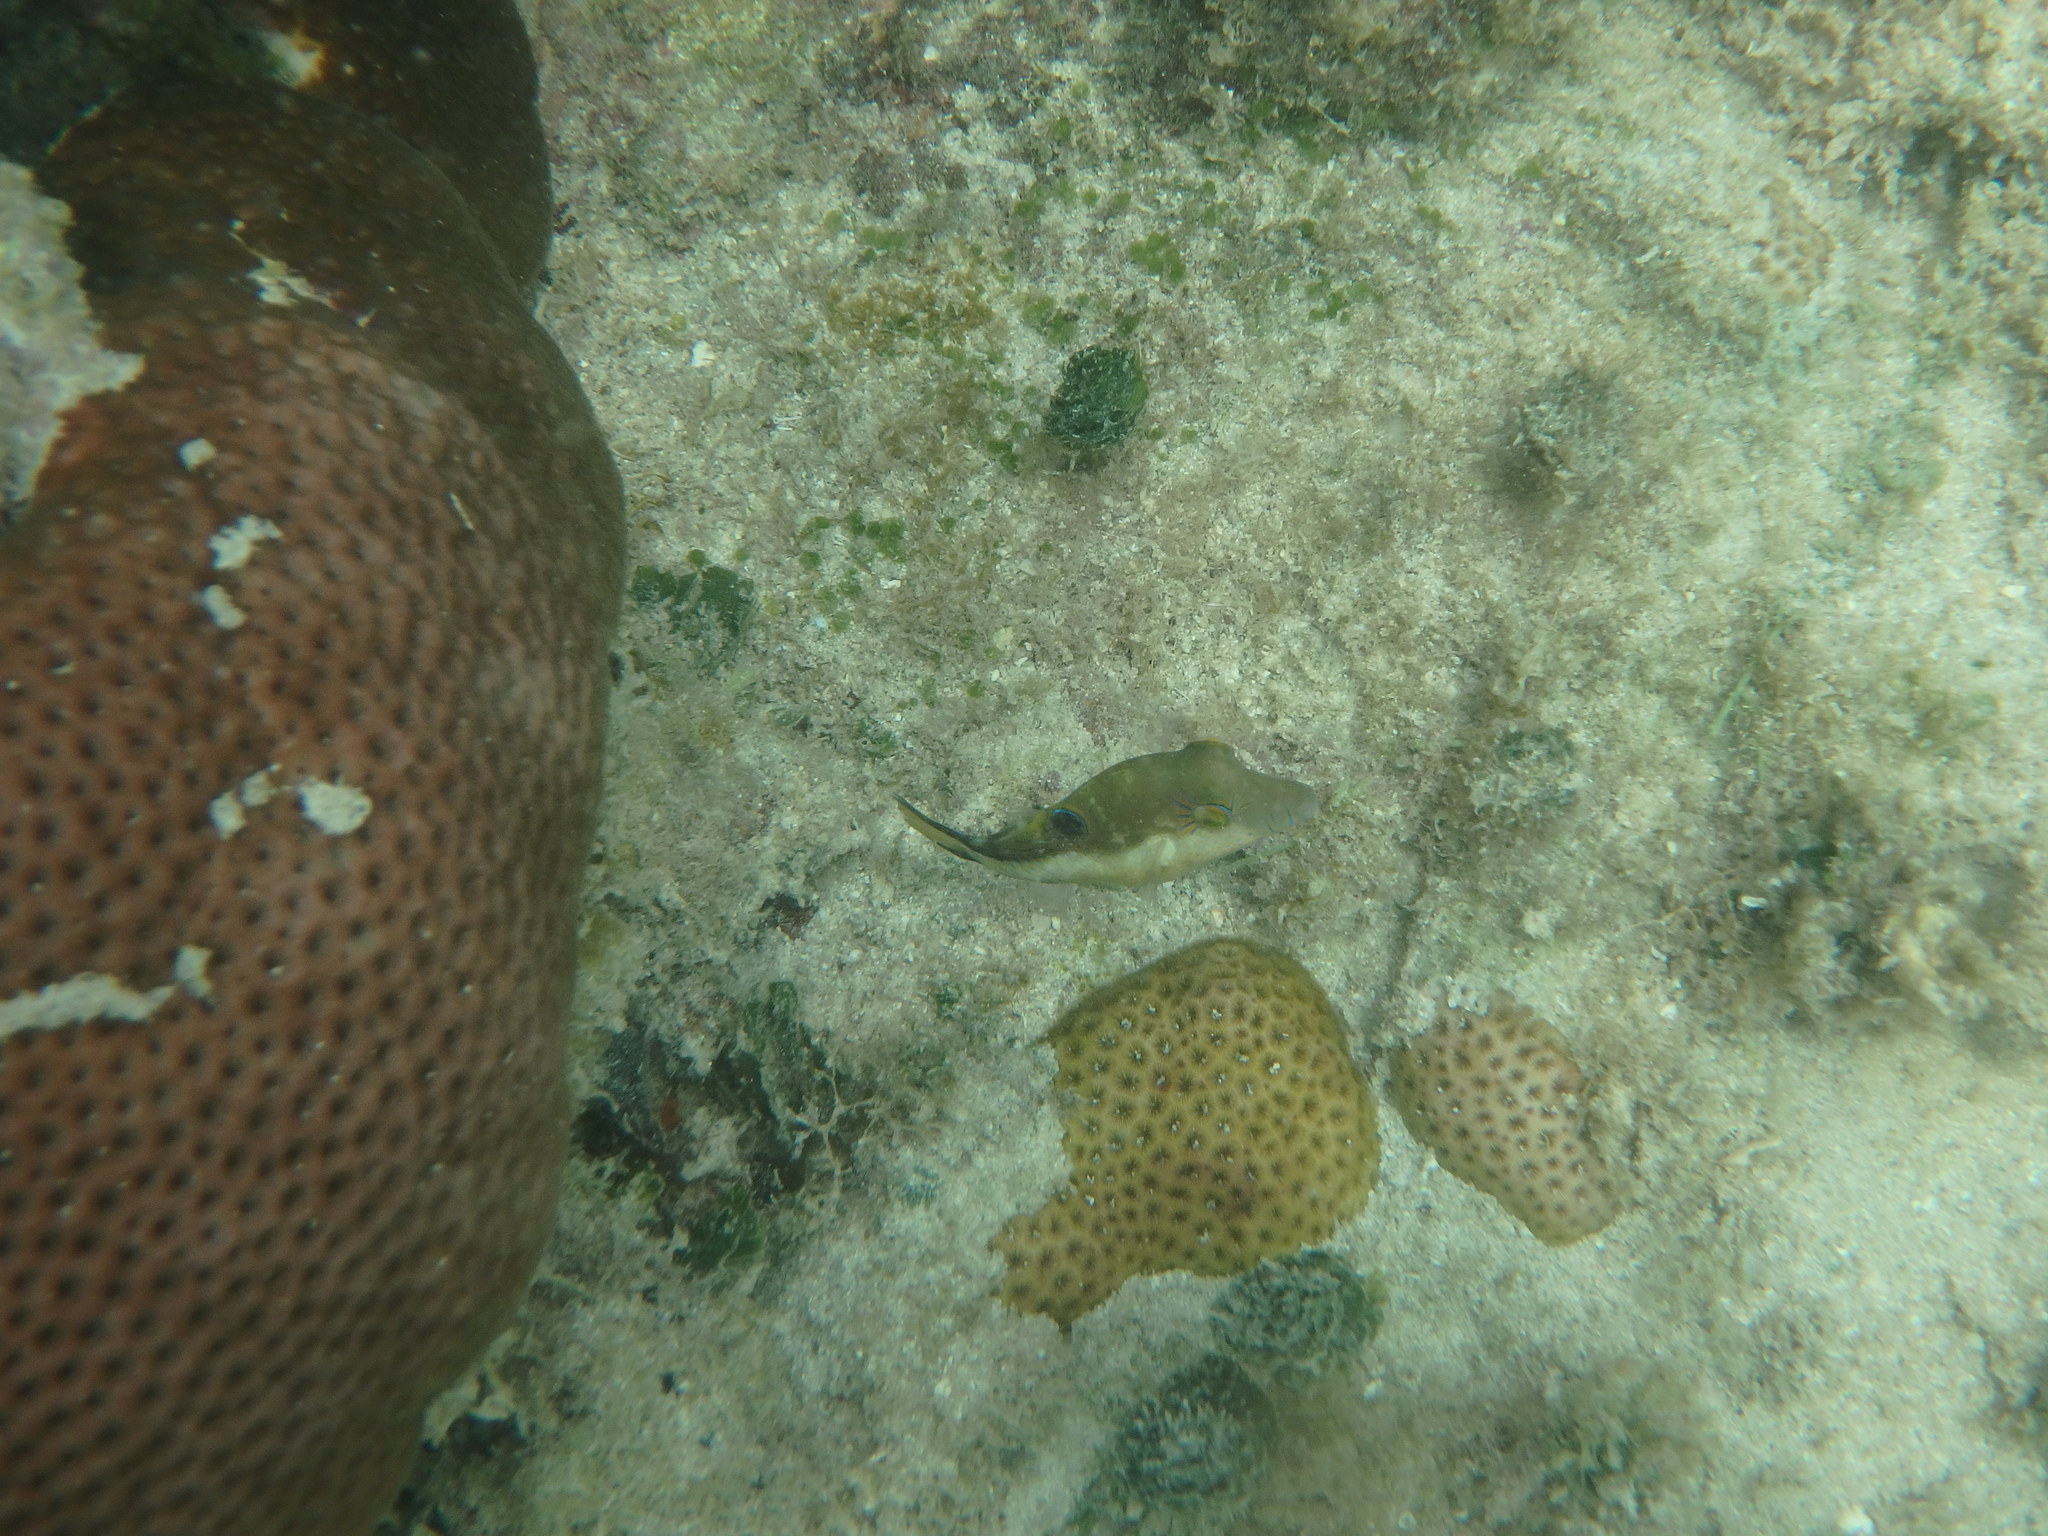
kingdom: Animalia
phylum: Chordata
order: Tetraodontiformes
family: Tetraodontidae
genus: Canthigaster
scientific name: Canthigaster rostrata
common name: Caribbean sharpnose-puffer
